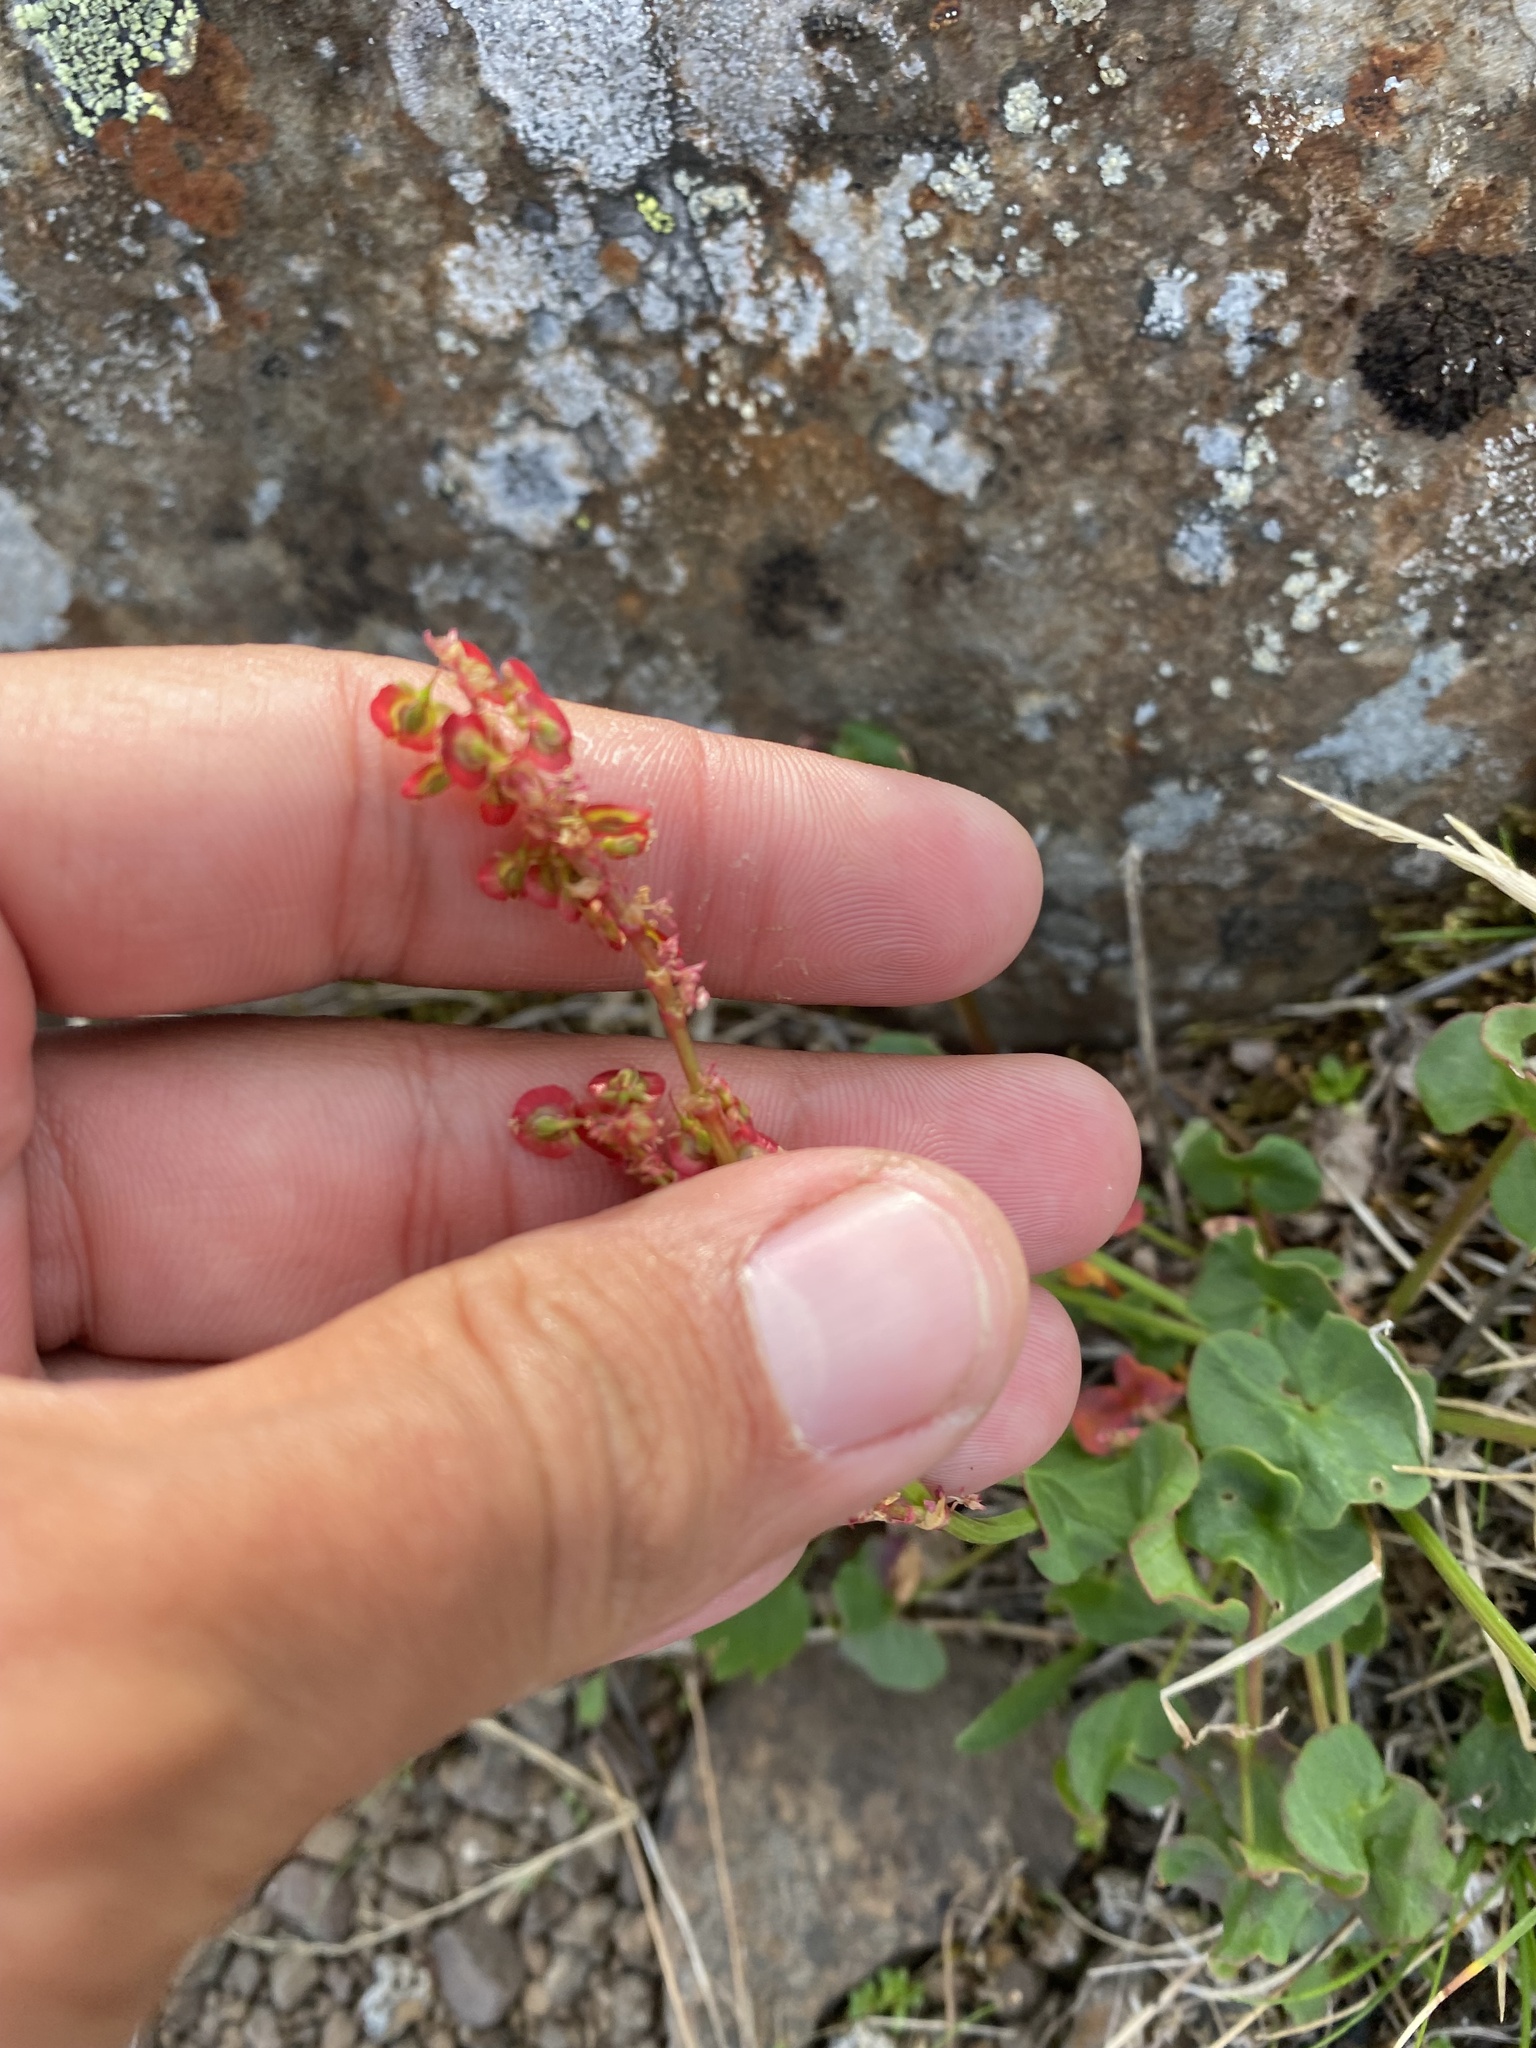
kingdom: Plantae
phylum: Tracheophyta
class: Magnoliopsida
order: Caryophyllales
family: Polygonaceae
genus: Oxyria
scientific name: Oxyria digyna
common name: Alpine mountain-sorrel
